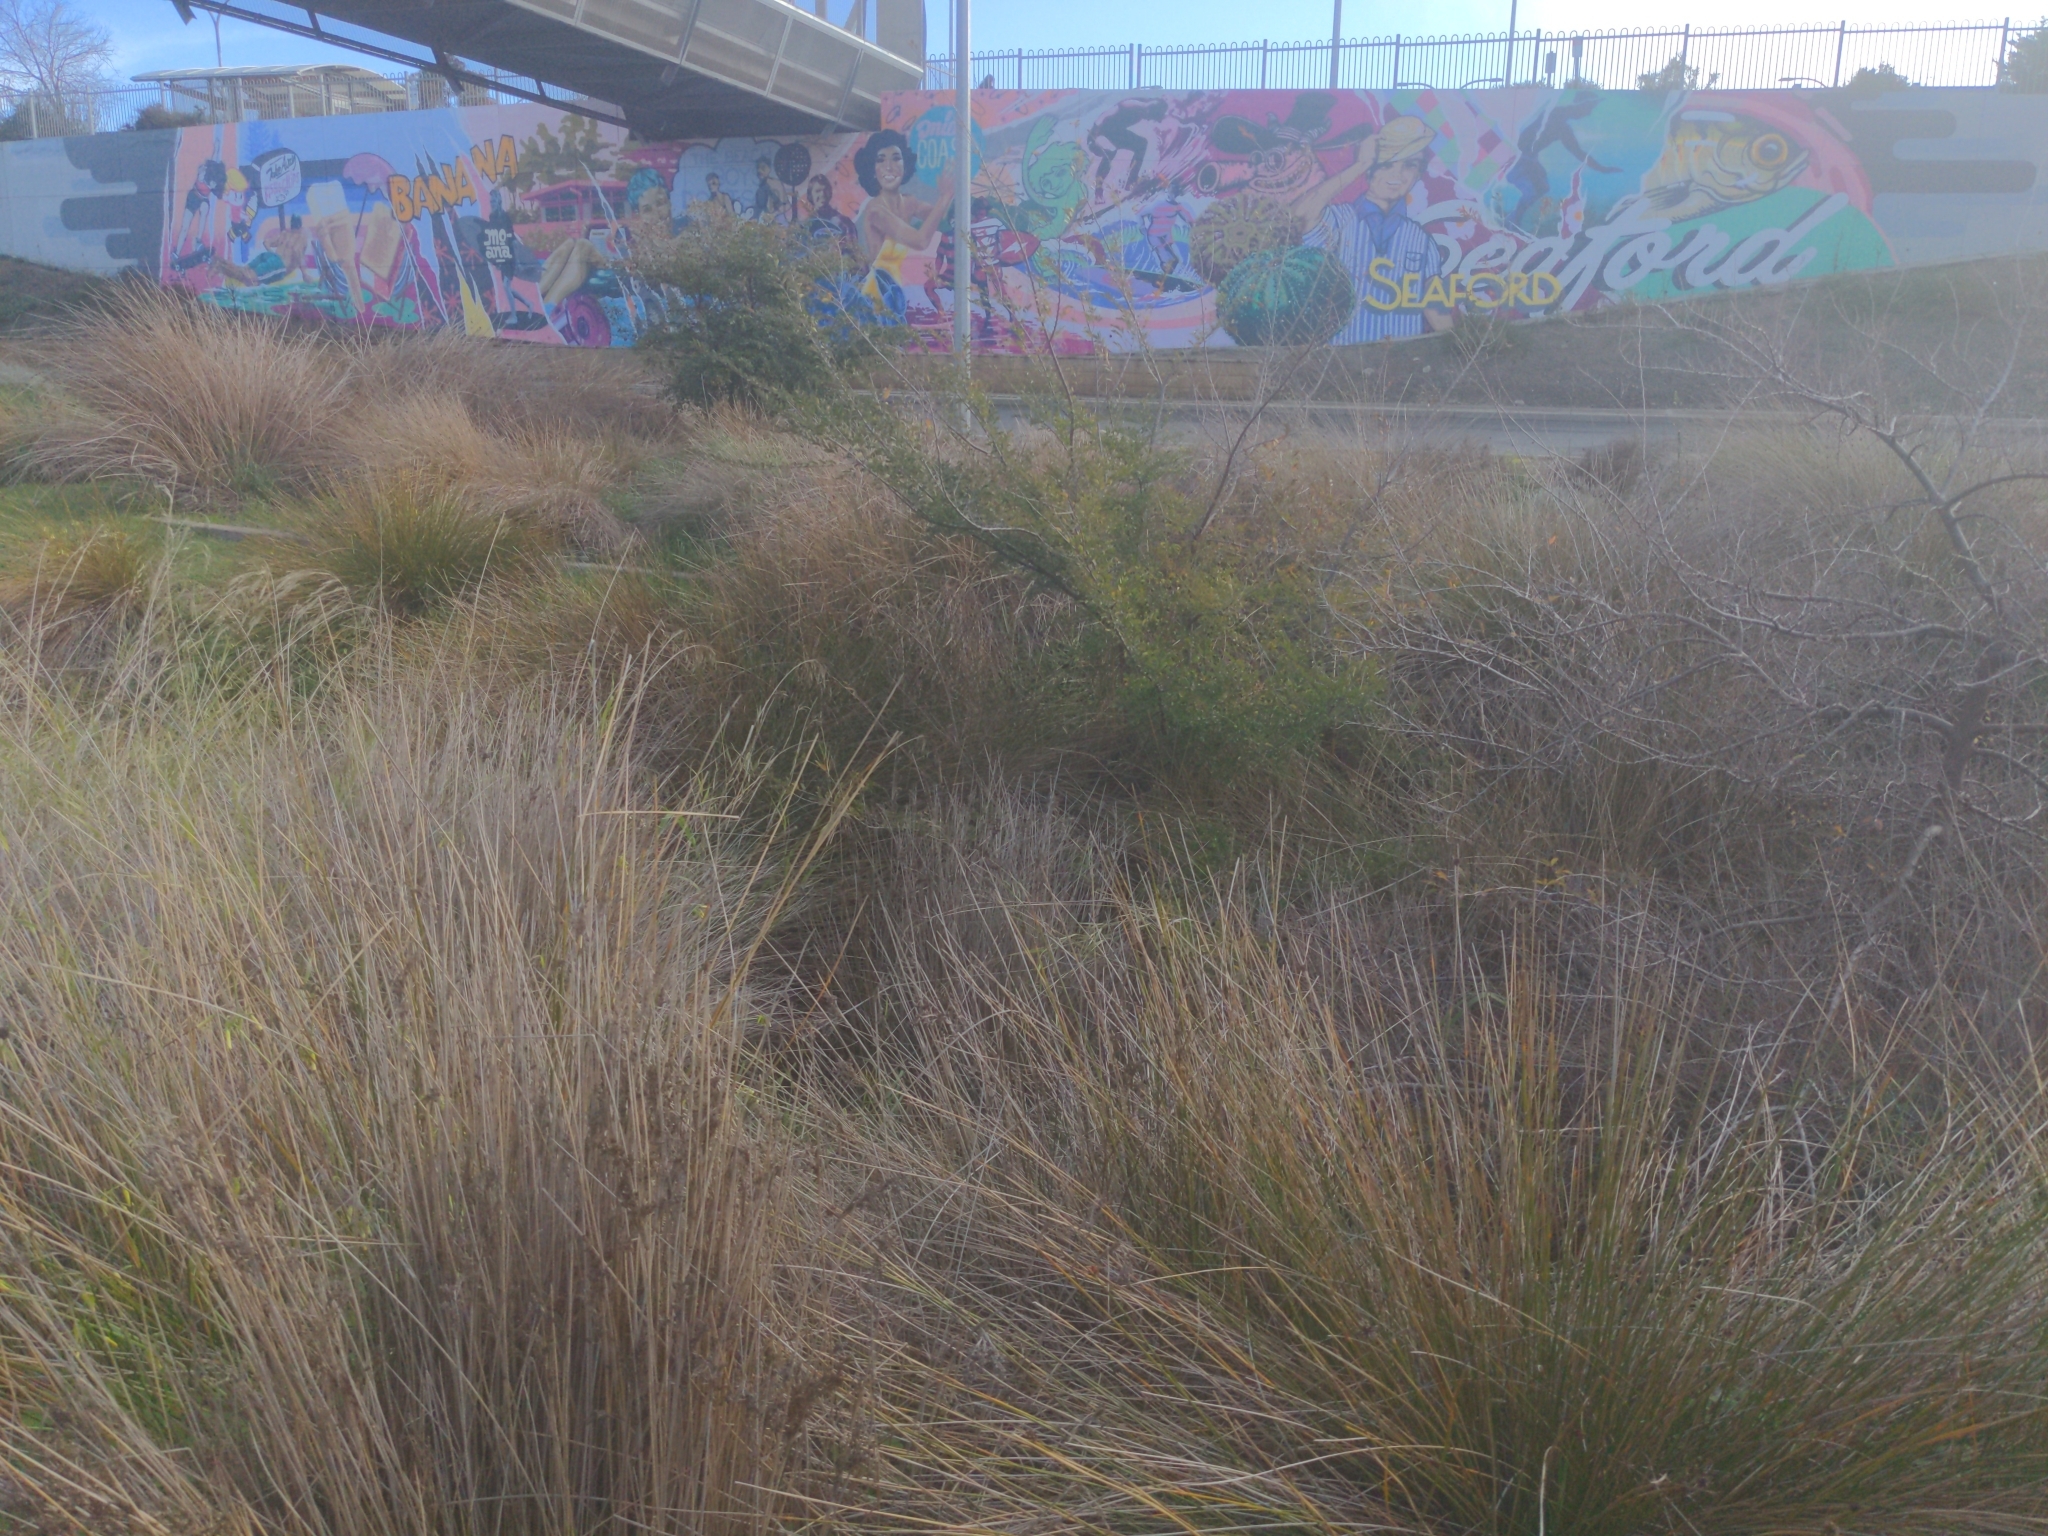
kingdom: Animalia
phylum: Chordata
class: Amphibia
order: Anura
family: Myobatrachidae
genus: Crinia
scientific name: Crinia signifera
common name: Brown froglet
